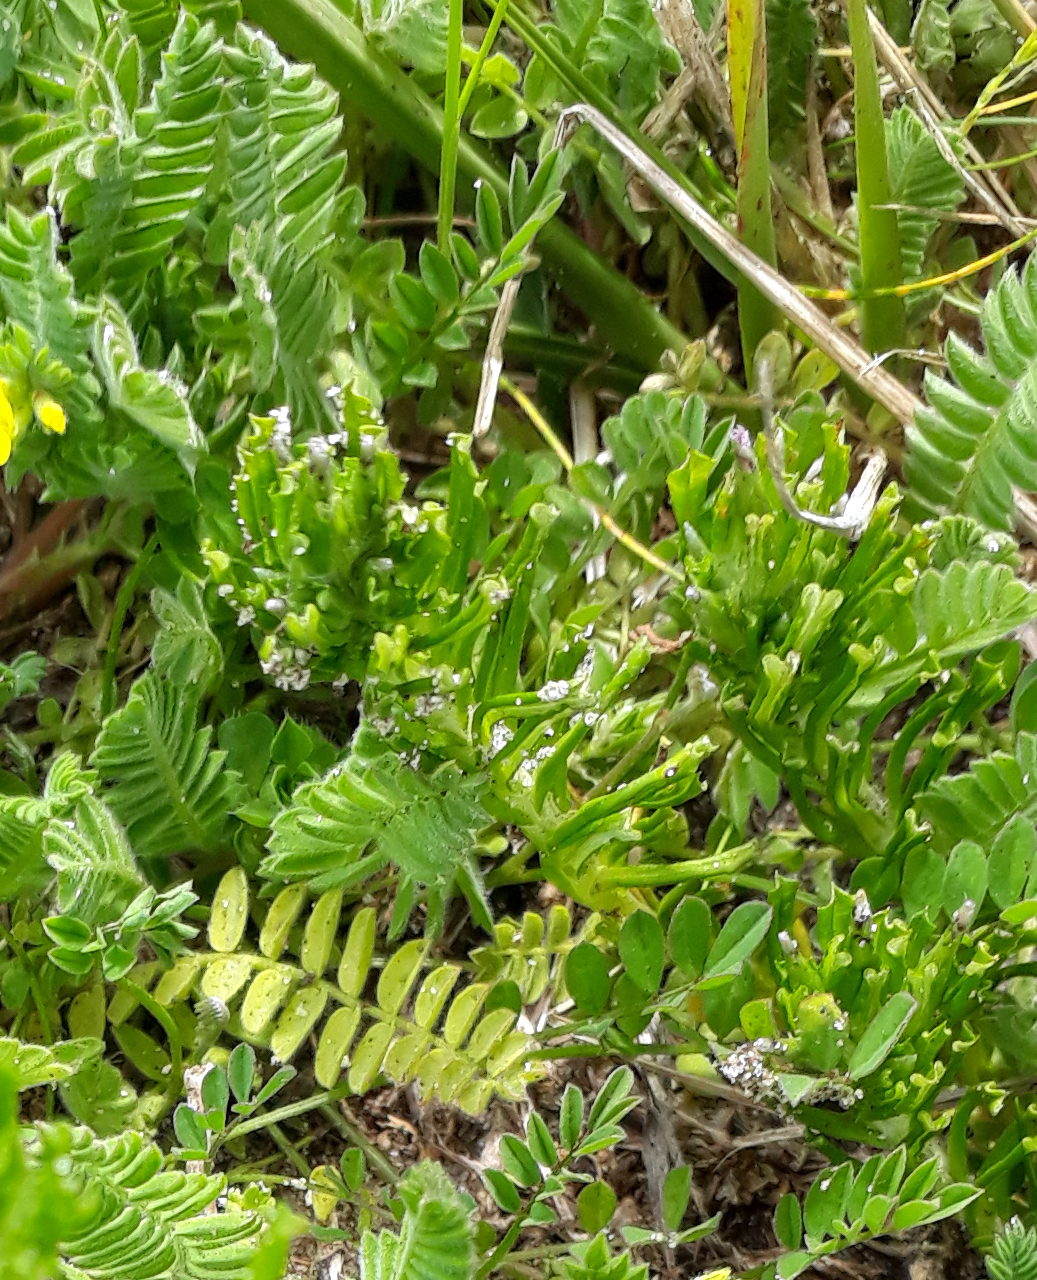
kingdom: Plantae
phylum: Tracheophyta
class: Magnoliopsida
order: Asterales
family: Asteraceae
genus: Facelis
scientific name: Facelis retusa
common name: Annual trampweed
